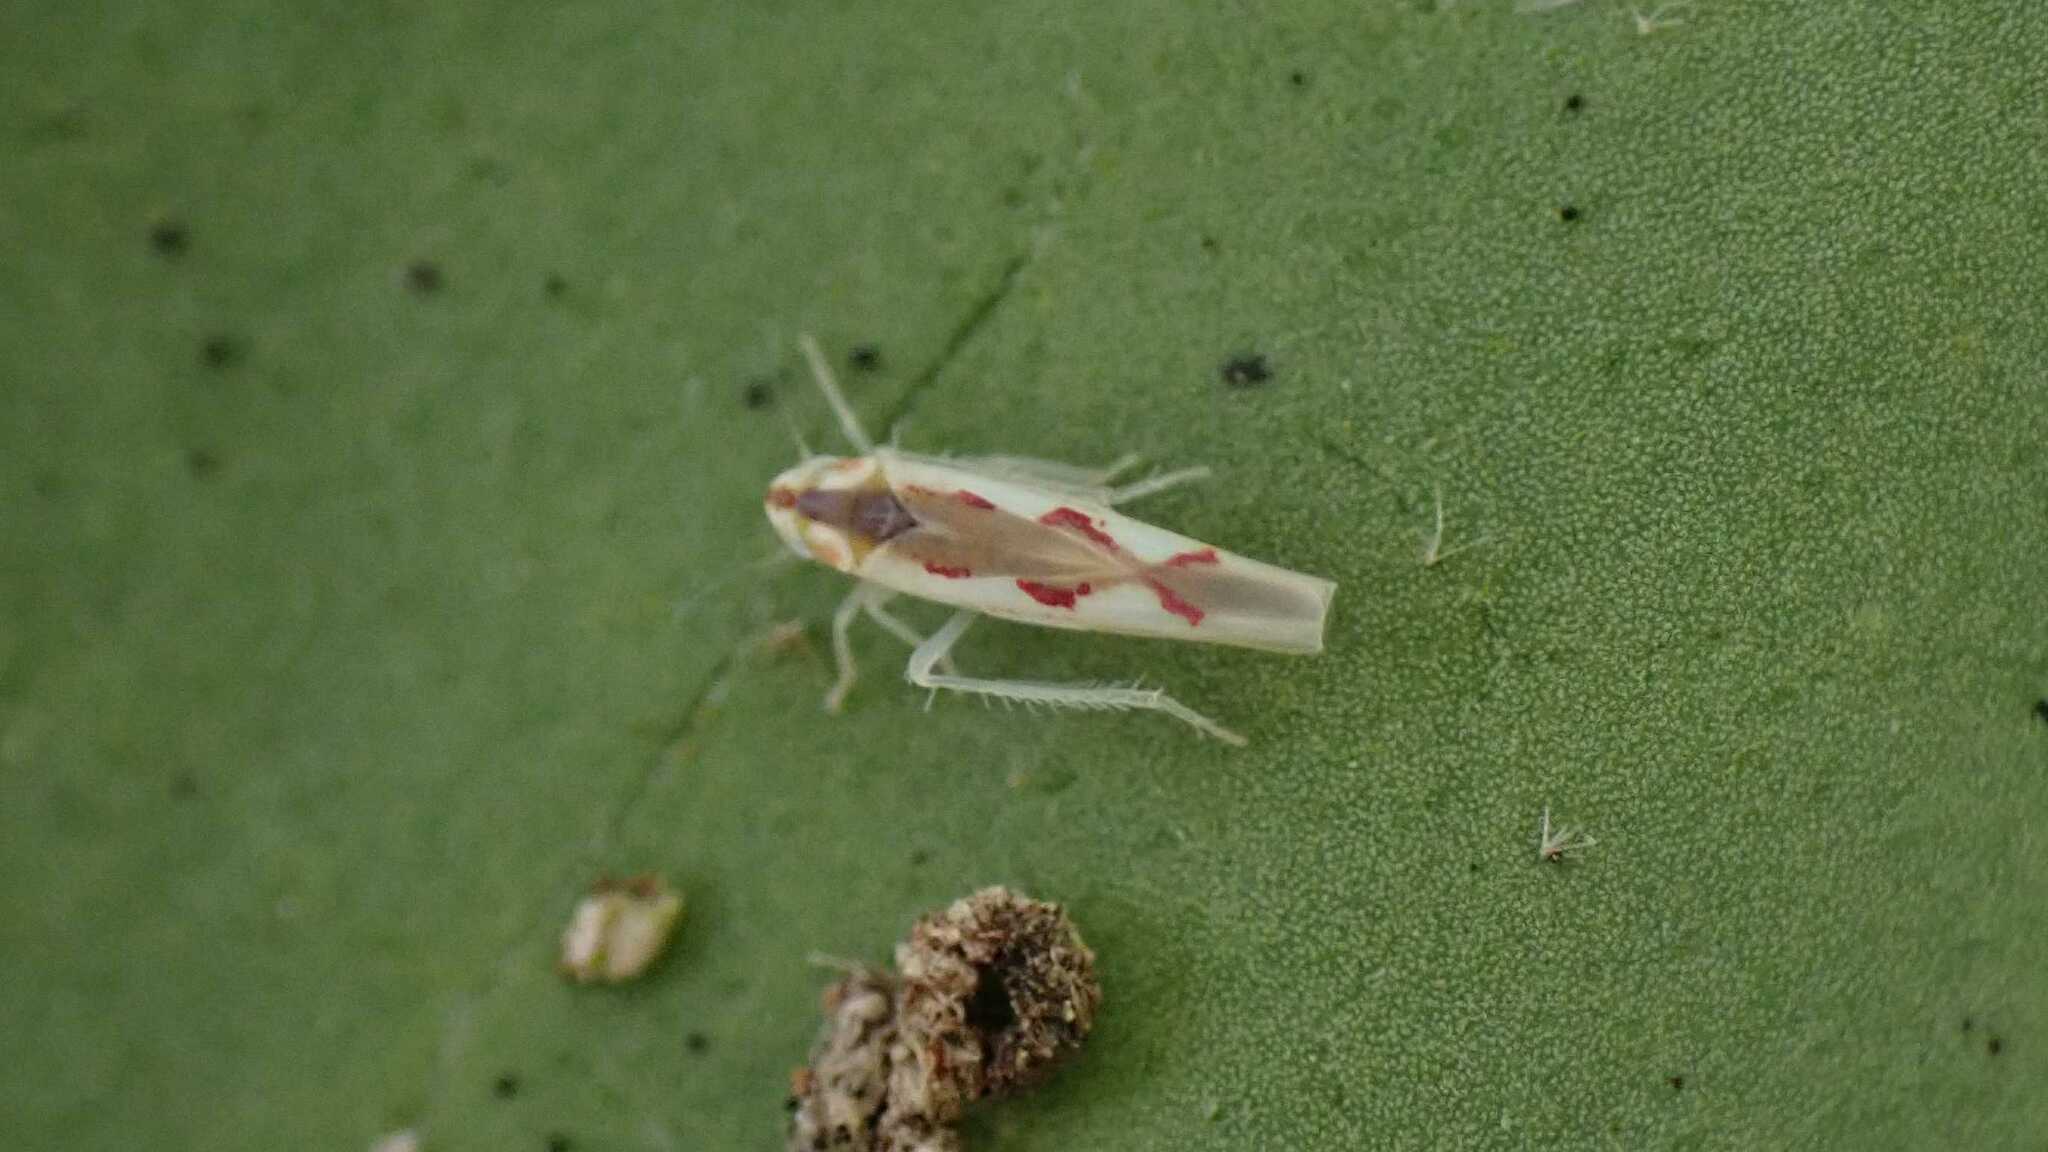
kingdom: Animalia
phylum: Arthropoda
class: Insecta
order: Hemiptera
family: Cicadellidae
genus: Zygina
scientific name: Zygina angusta
